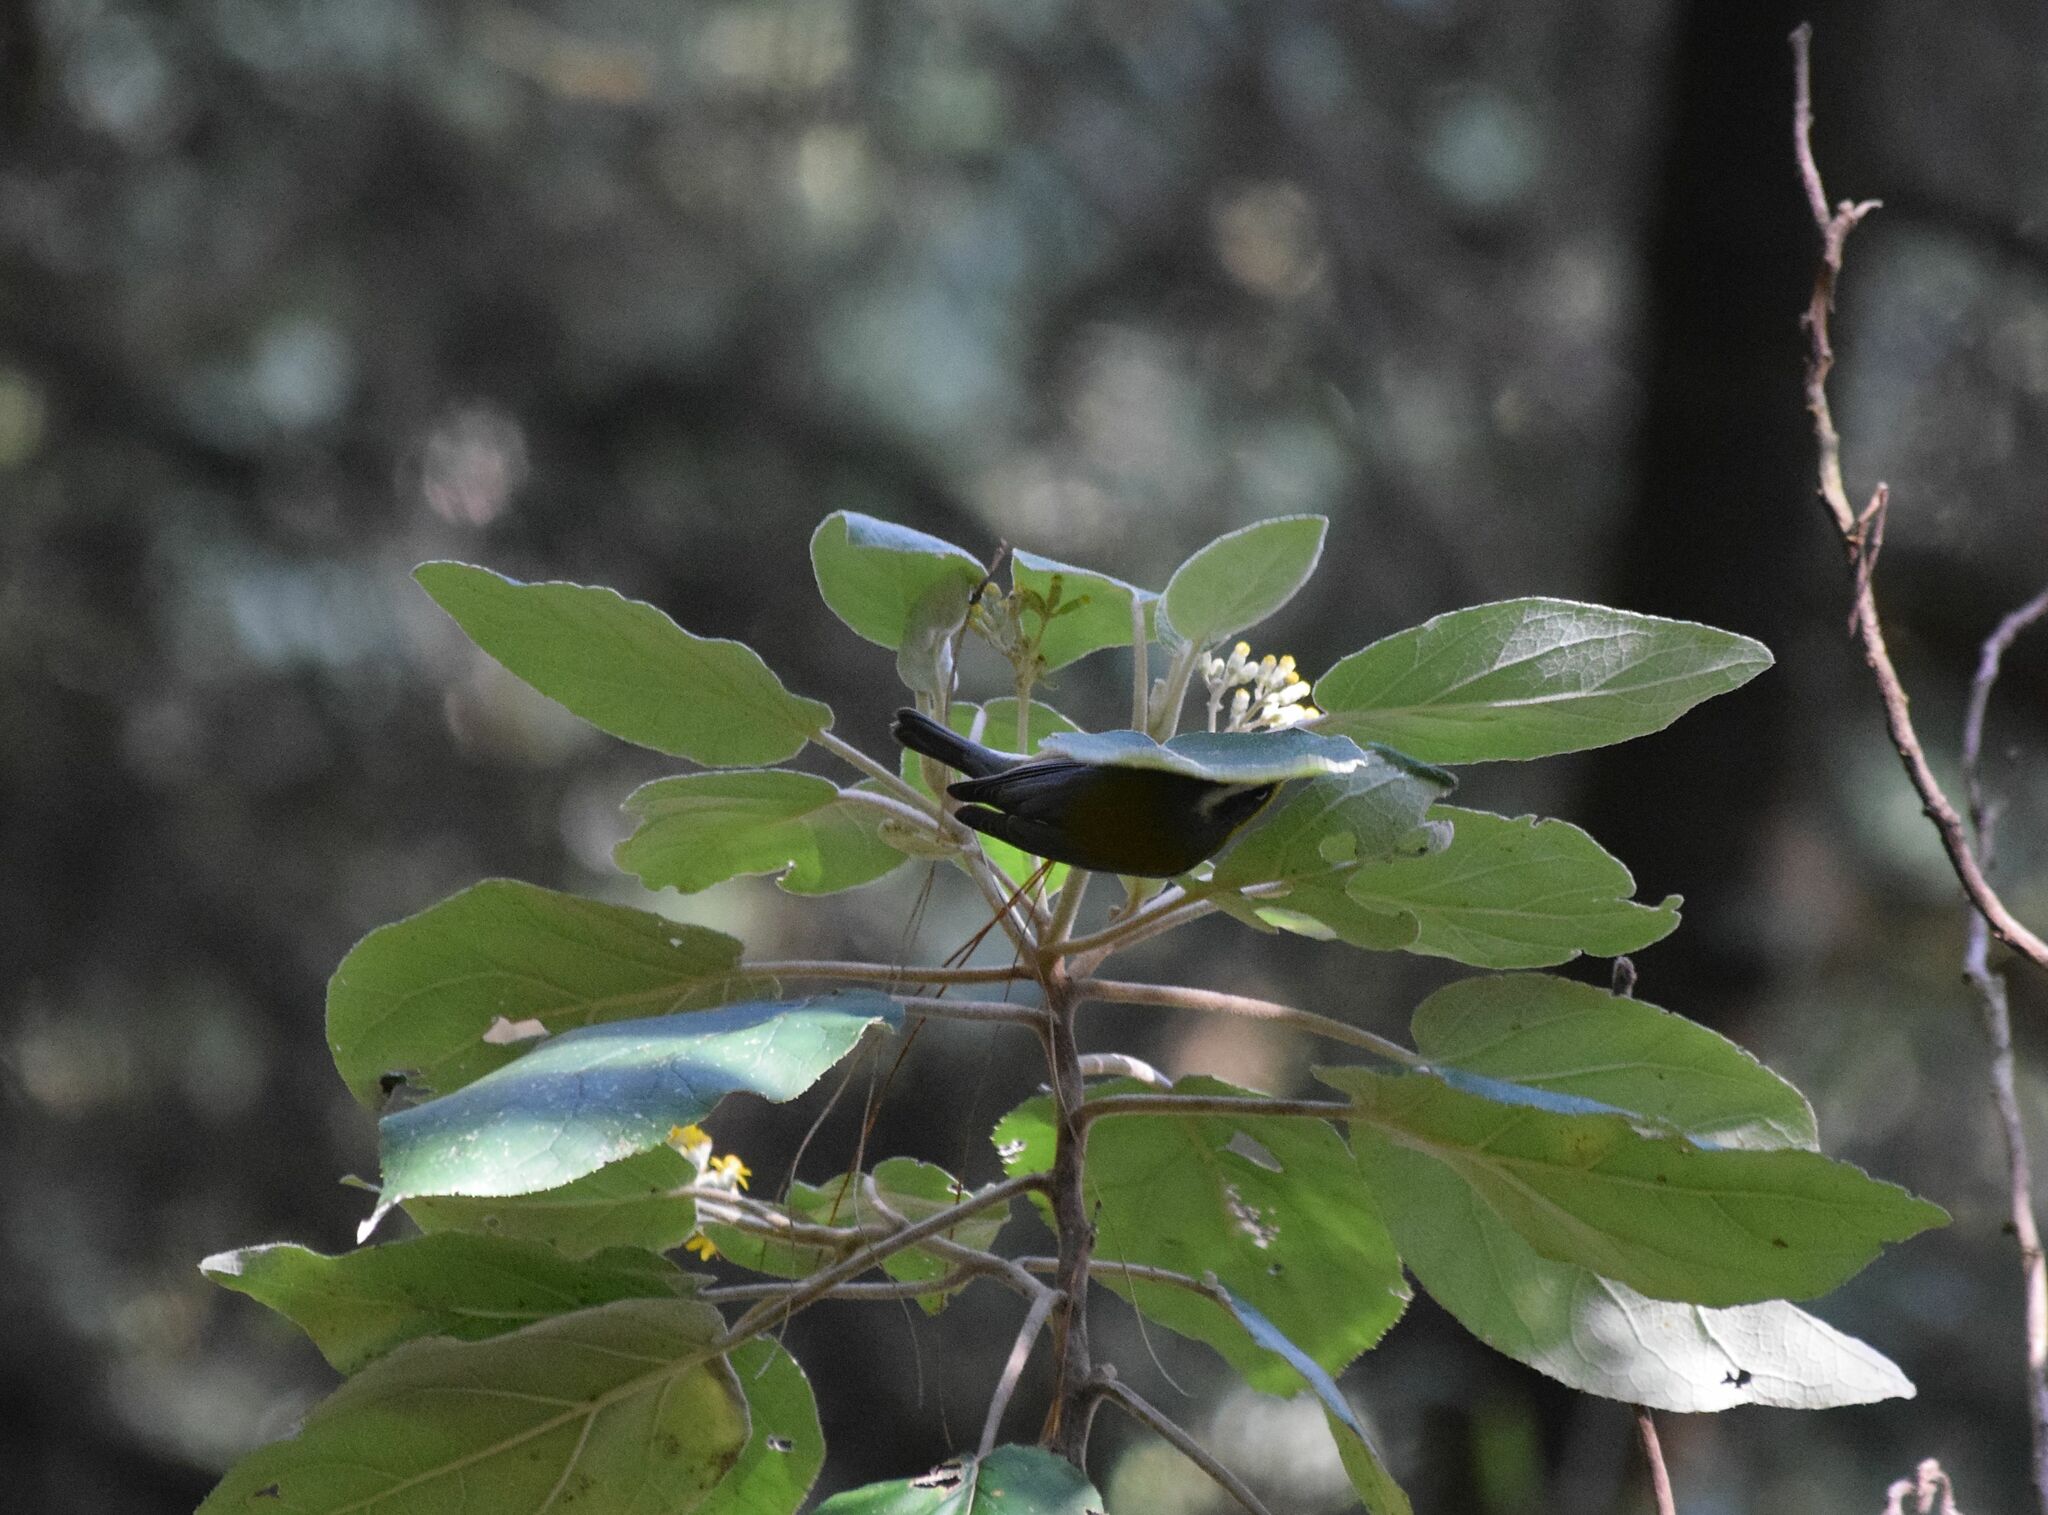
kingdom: Animalia
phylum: Chordata
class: Aves
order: Passeriformes
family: Parulidae
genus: Oreothlypis
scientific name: Oreothlypis superciliosa
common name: Crescent-chested warbler
